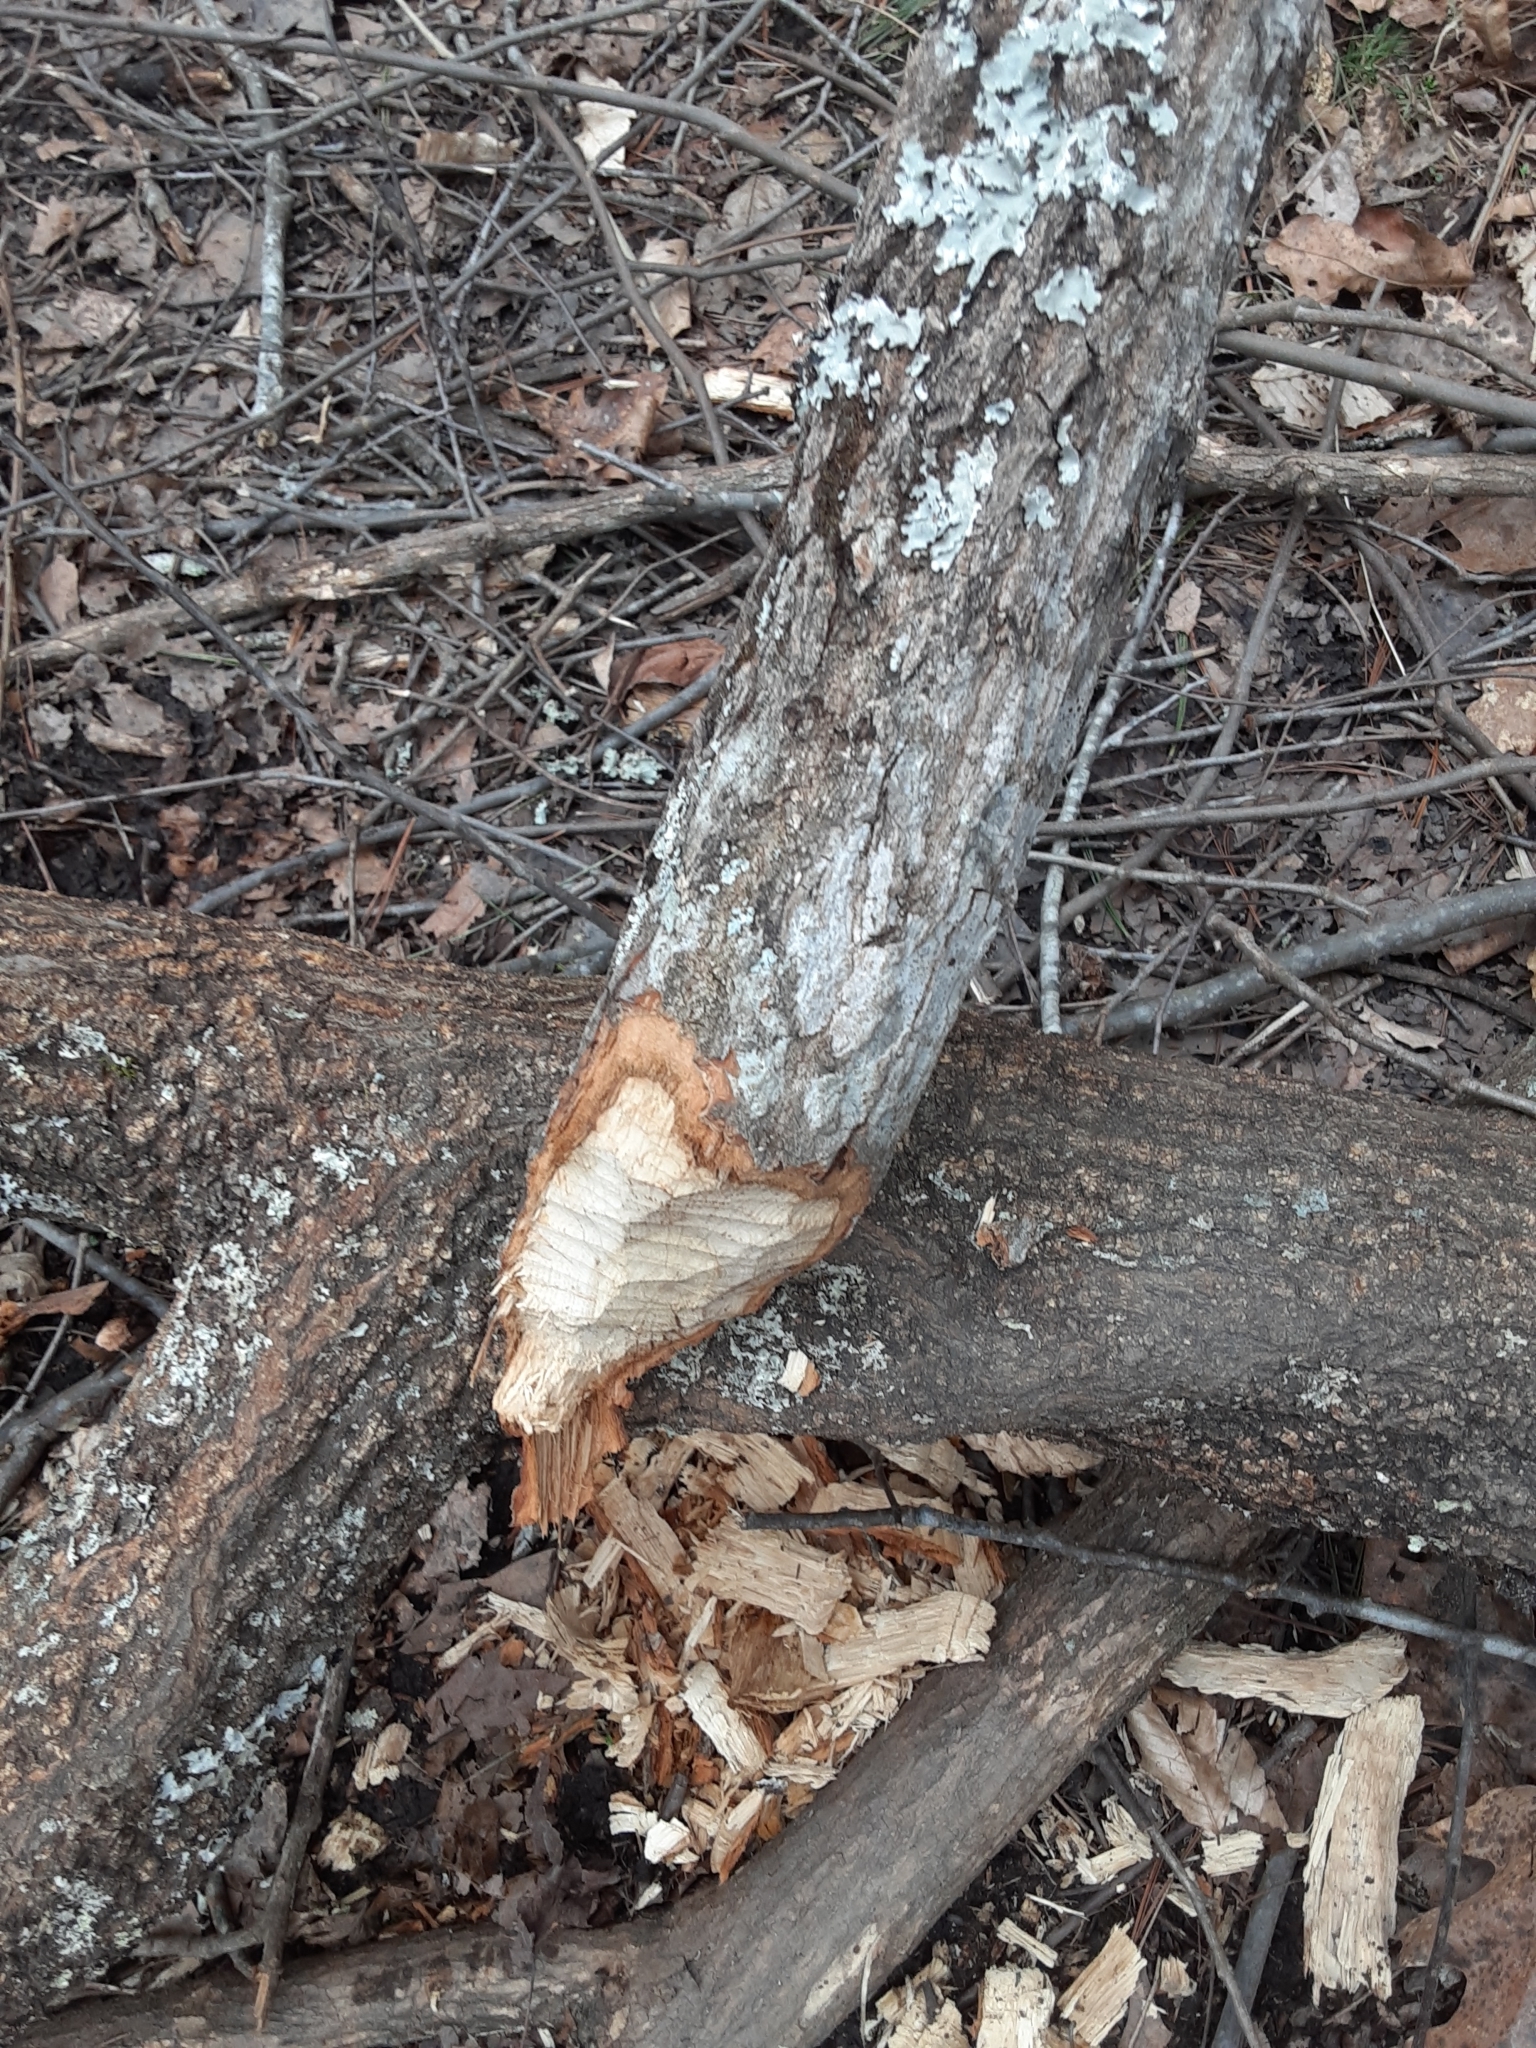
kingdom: Animalia
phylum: Chordata
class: Mammalia
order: Rodentia
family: Castoridae
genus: Castor
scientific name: Castor canadensis
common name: American beaver
